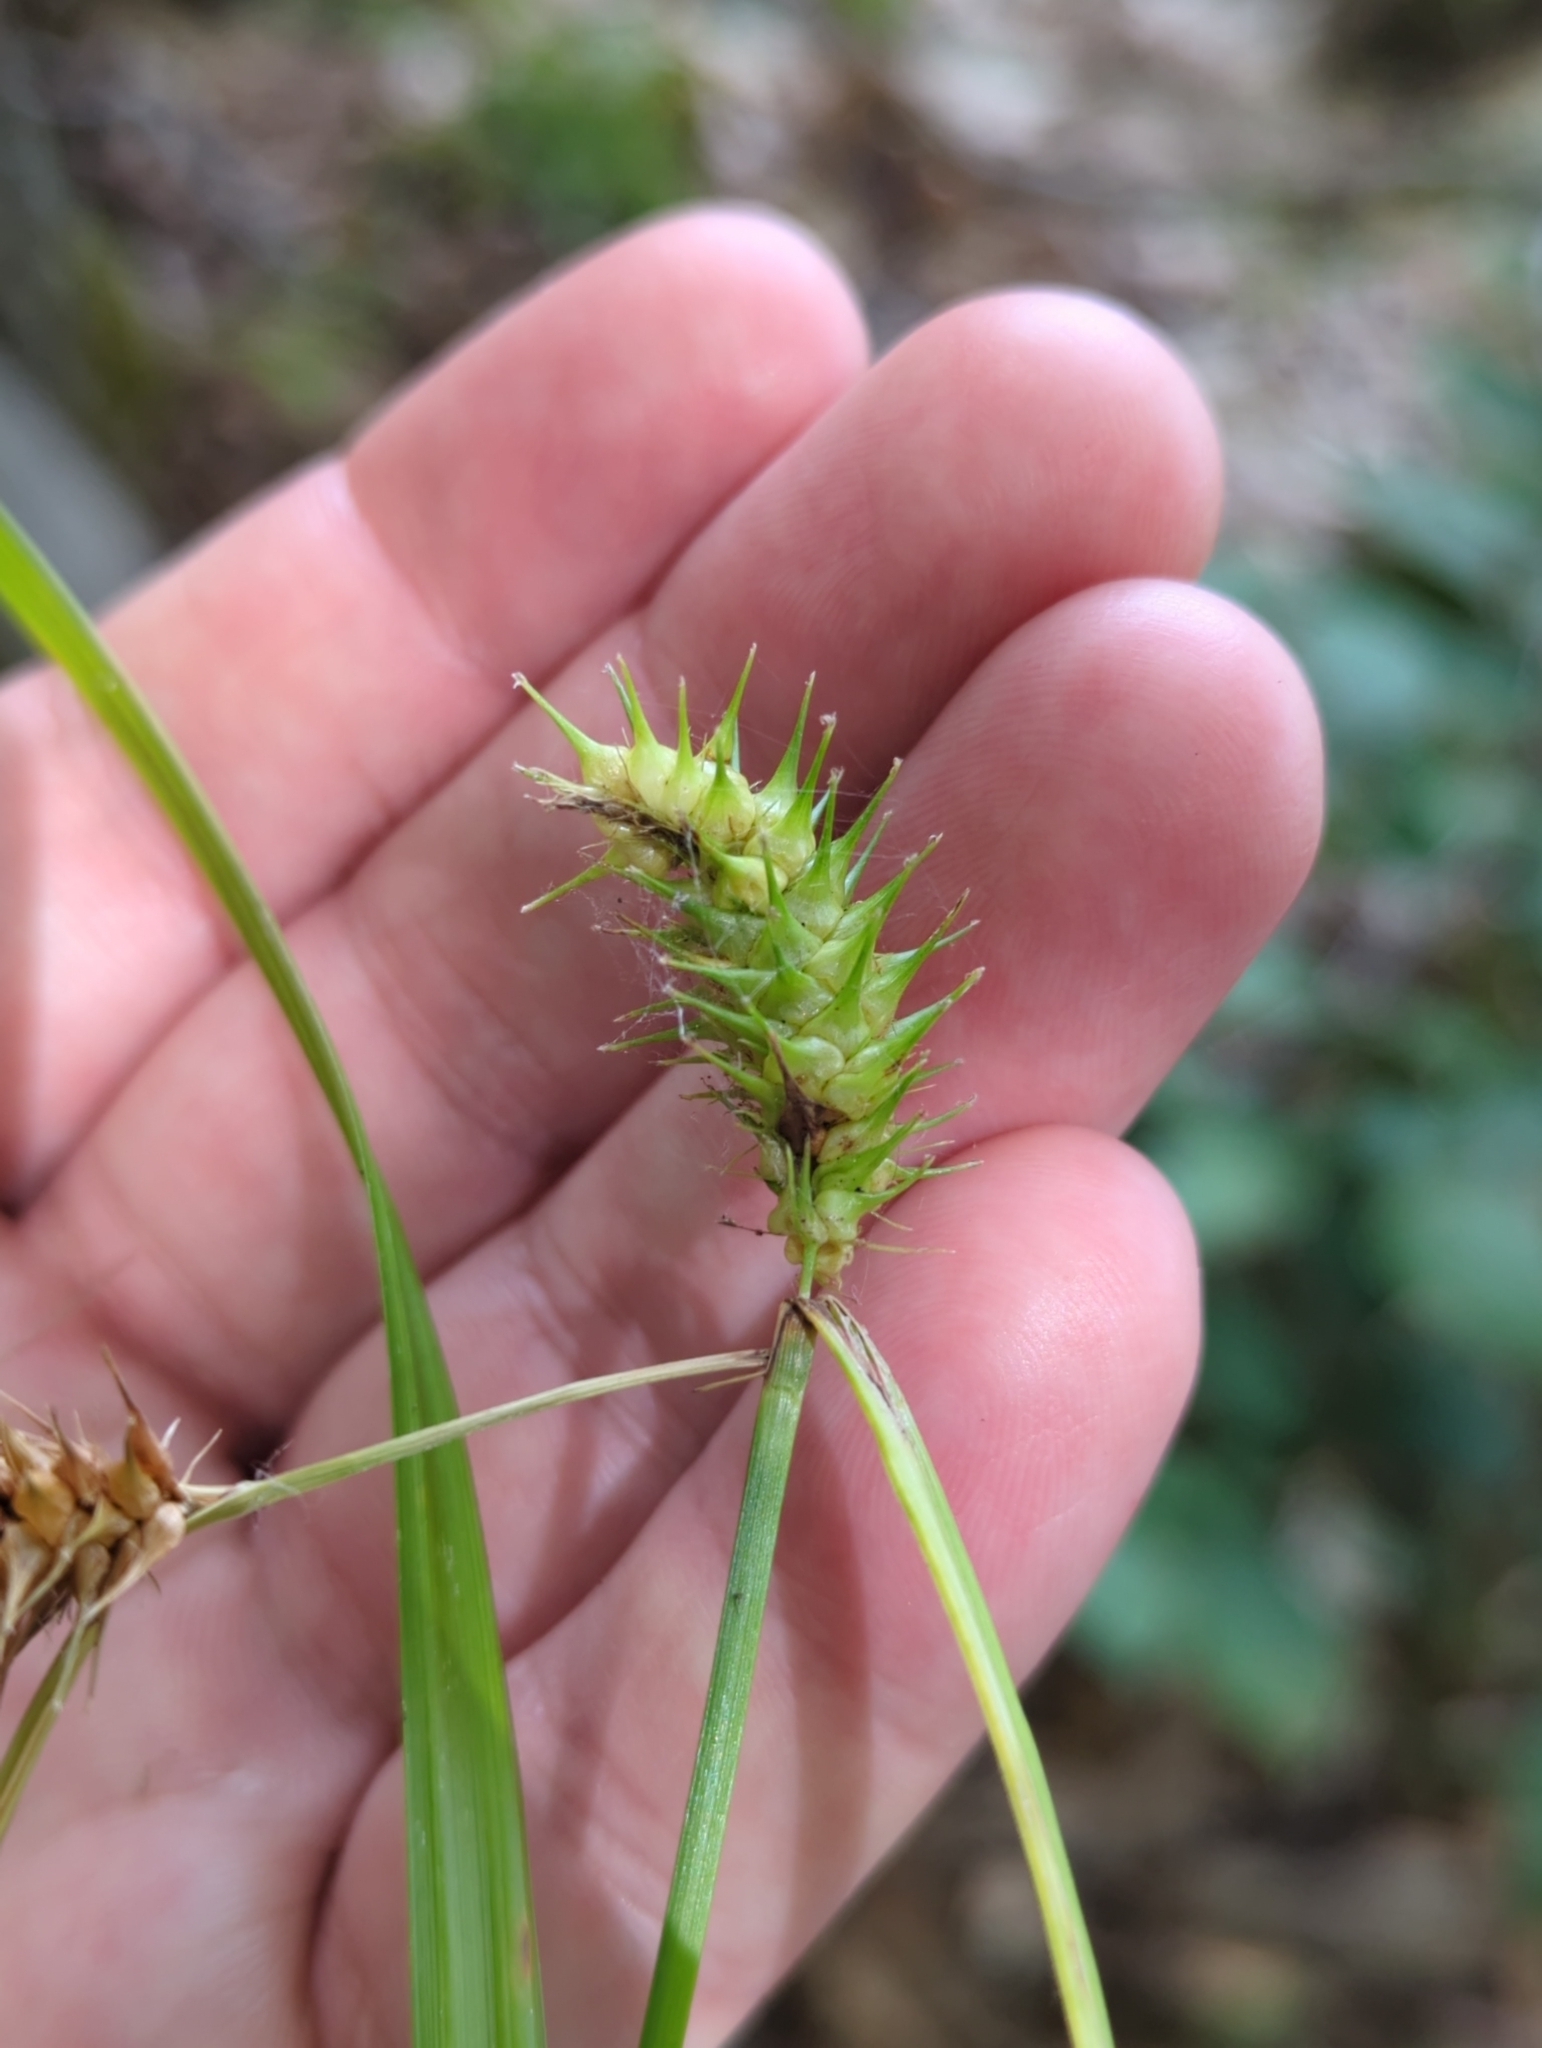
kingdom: Plantae
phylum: Tracheophyta
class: Liliopsida
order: Poales
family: Cyperaceae
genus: Carex
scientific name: Carex lurida
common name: Sallow sedge
